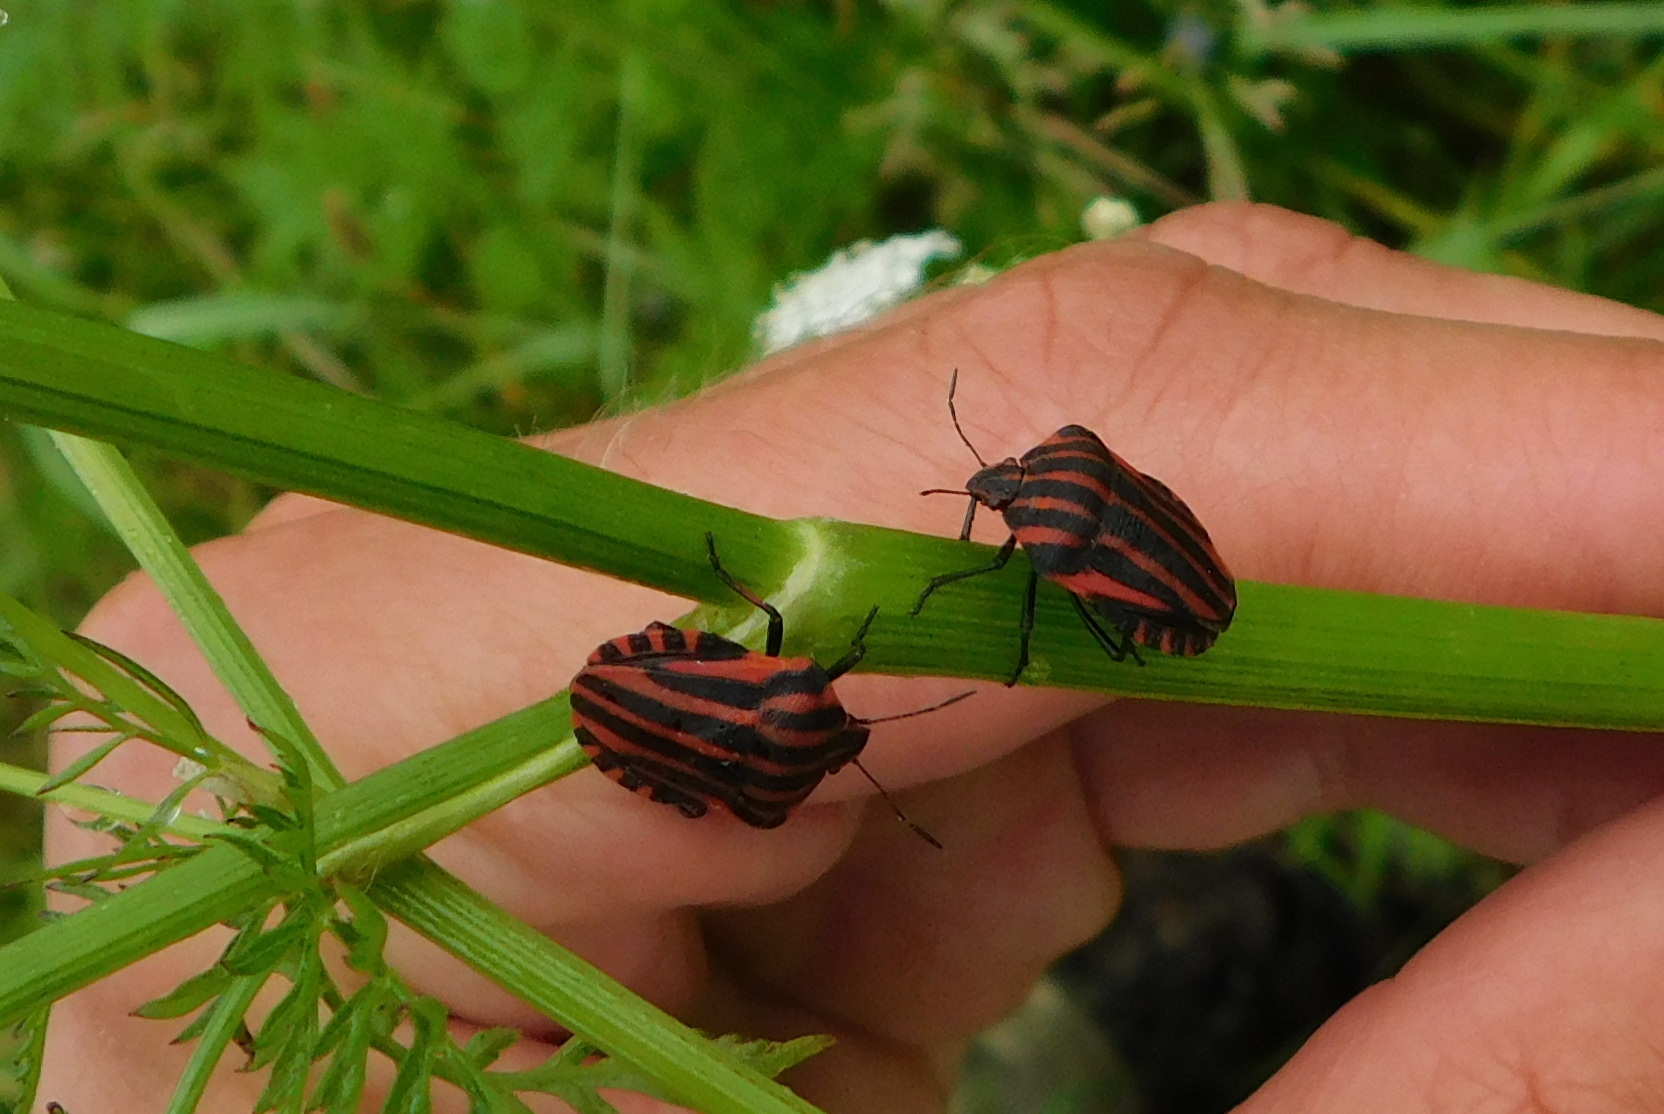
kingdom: Animalia
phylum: Arthropoda
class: Insecta
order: Hemiptera
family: Pentatomidae
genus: Graphosoma
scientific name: Graphosoma italicum
